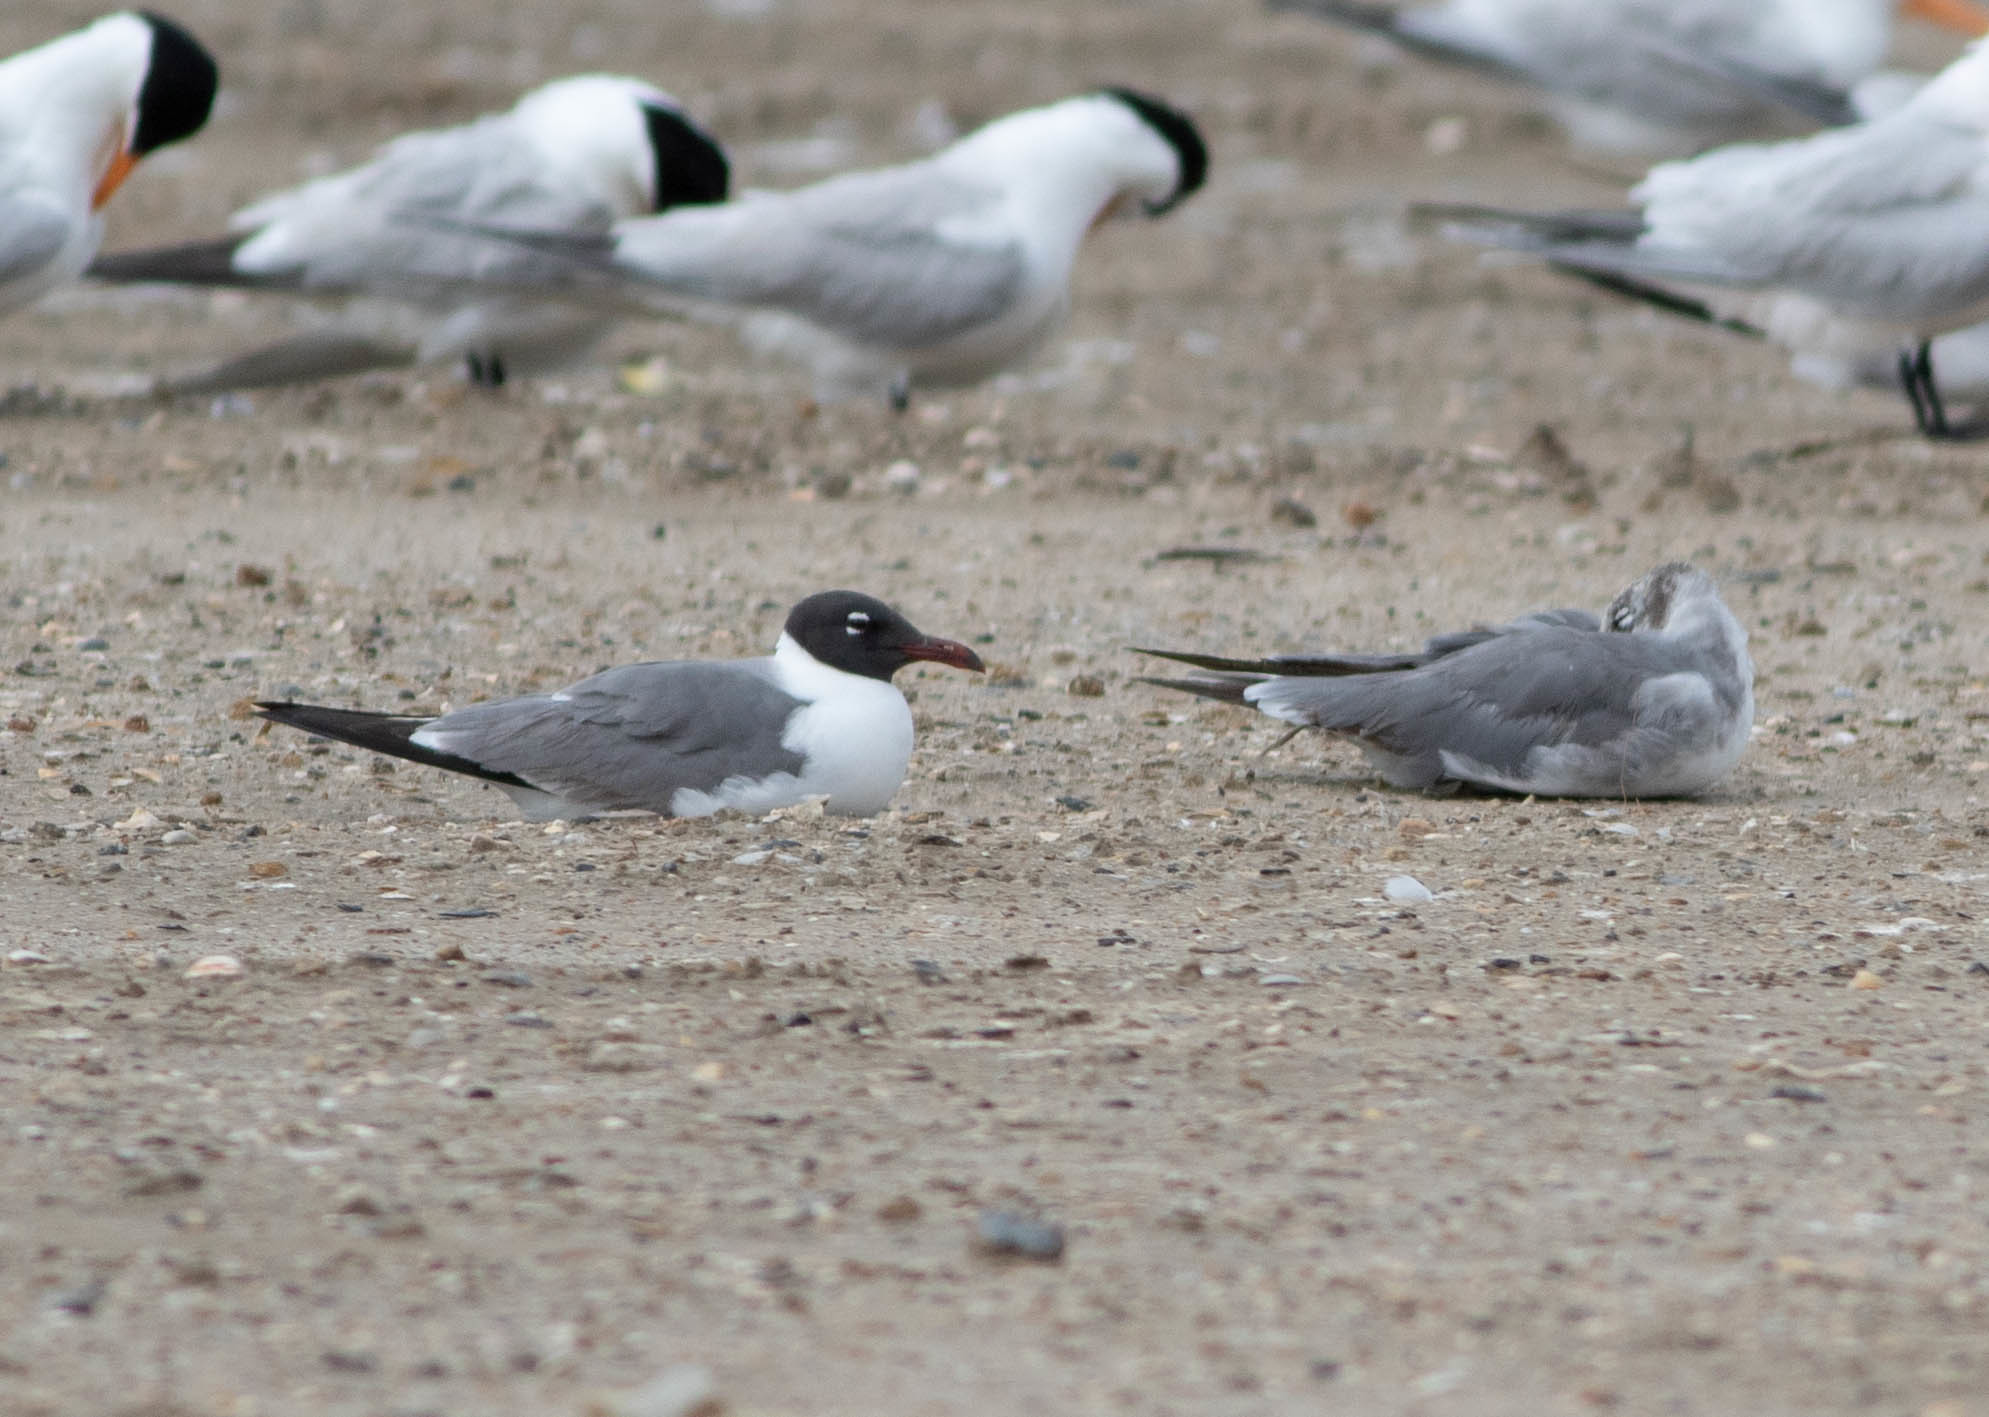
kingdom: Animalia
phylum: Chordata
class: Aves
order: Charadriiformes
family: Laridae
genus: Leucophaeus
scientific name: Leucophaeus atricilla
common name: Laughing gull
